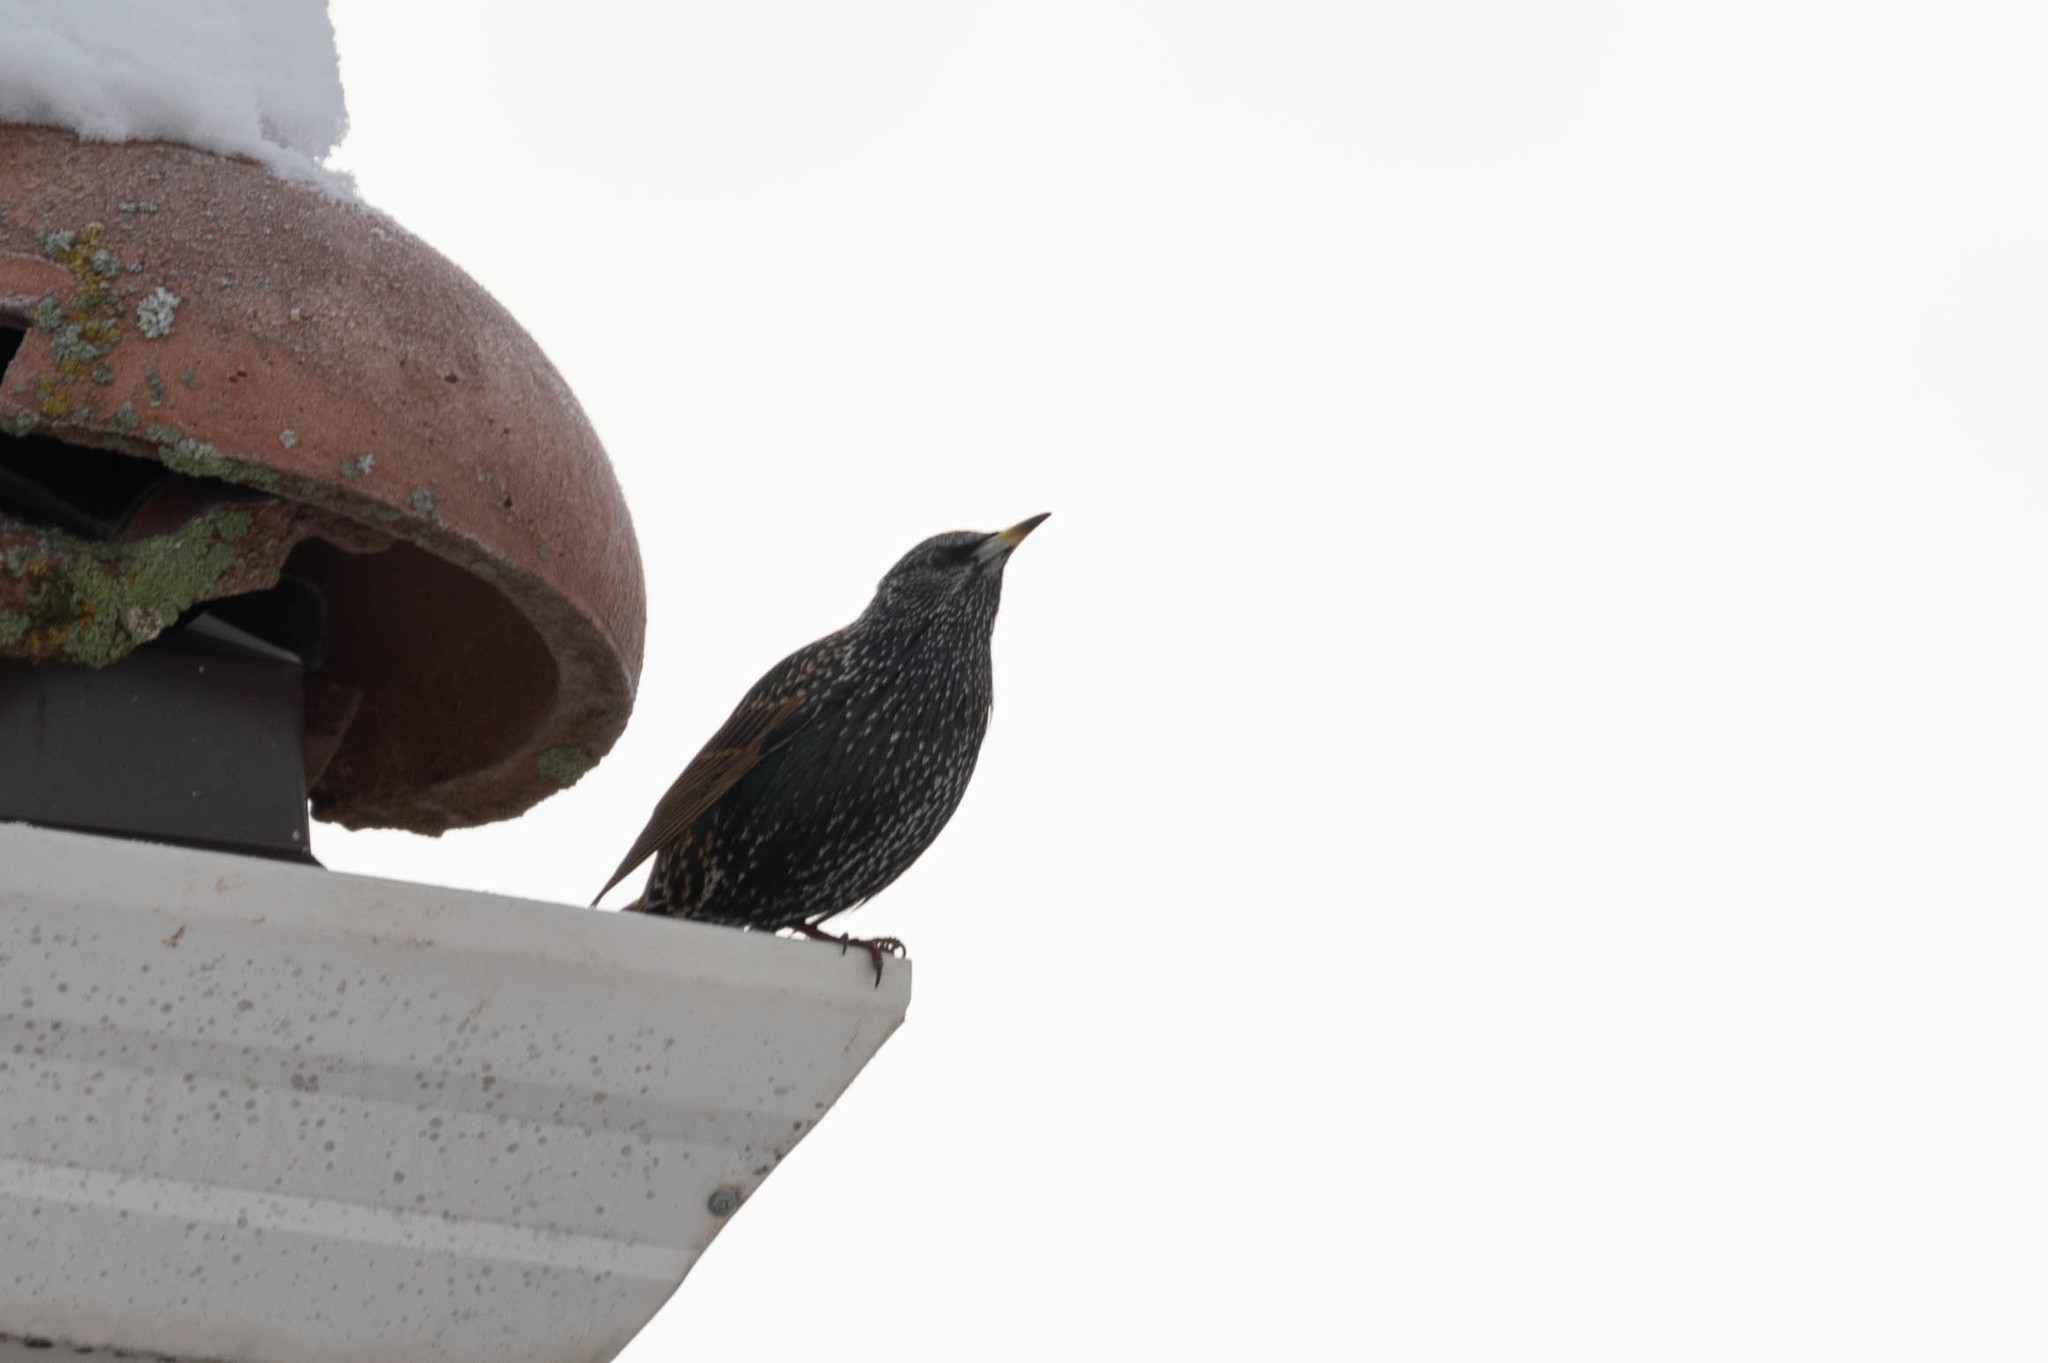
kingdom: Animalia
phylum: Chordata
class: Aves
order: Passeriformes
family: Sturnidae
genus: Sturnus
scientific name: Sturnus vulgaris
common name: Common starling
